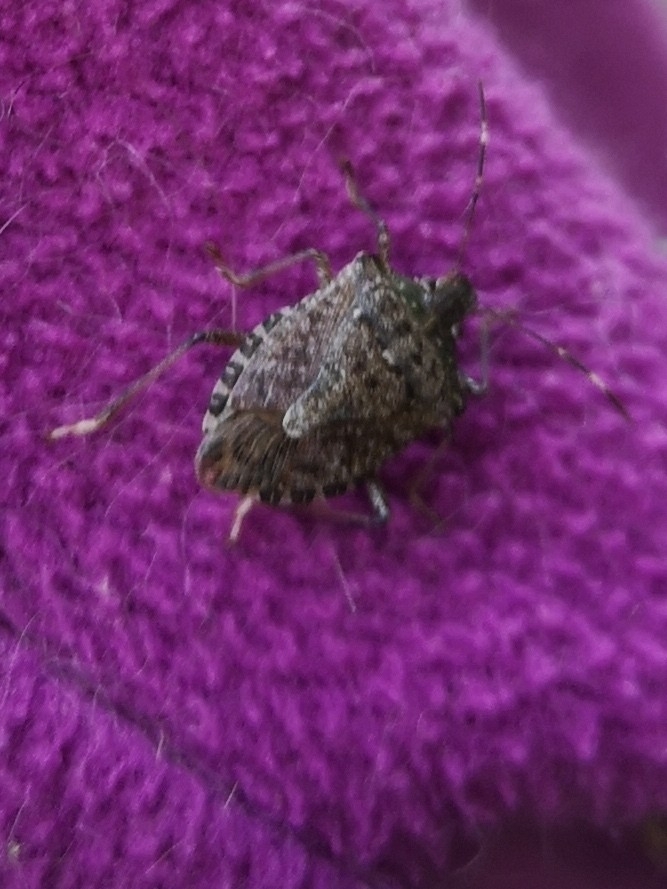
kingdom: Animalia
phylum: Arthropoda
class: Insecta
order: Hemiptera
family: Pentatomidae
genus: Halyomorpha
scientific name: Halyomorpha halys
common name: Brown marmorated stink bug
